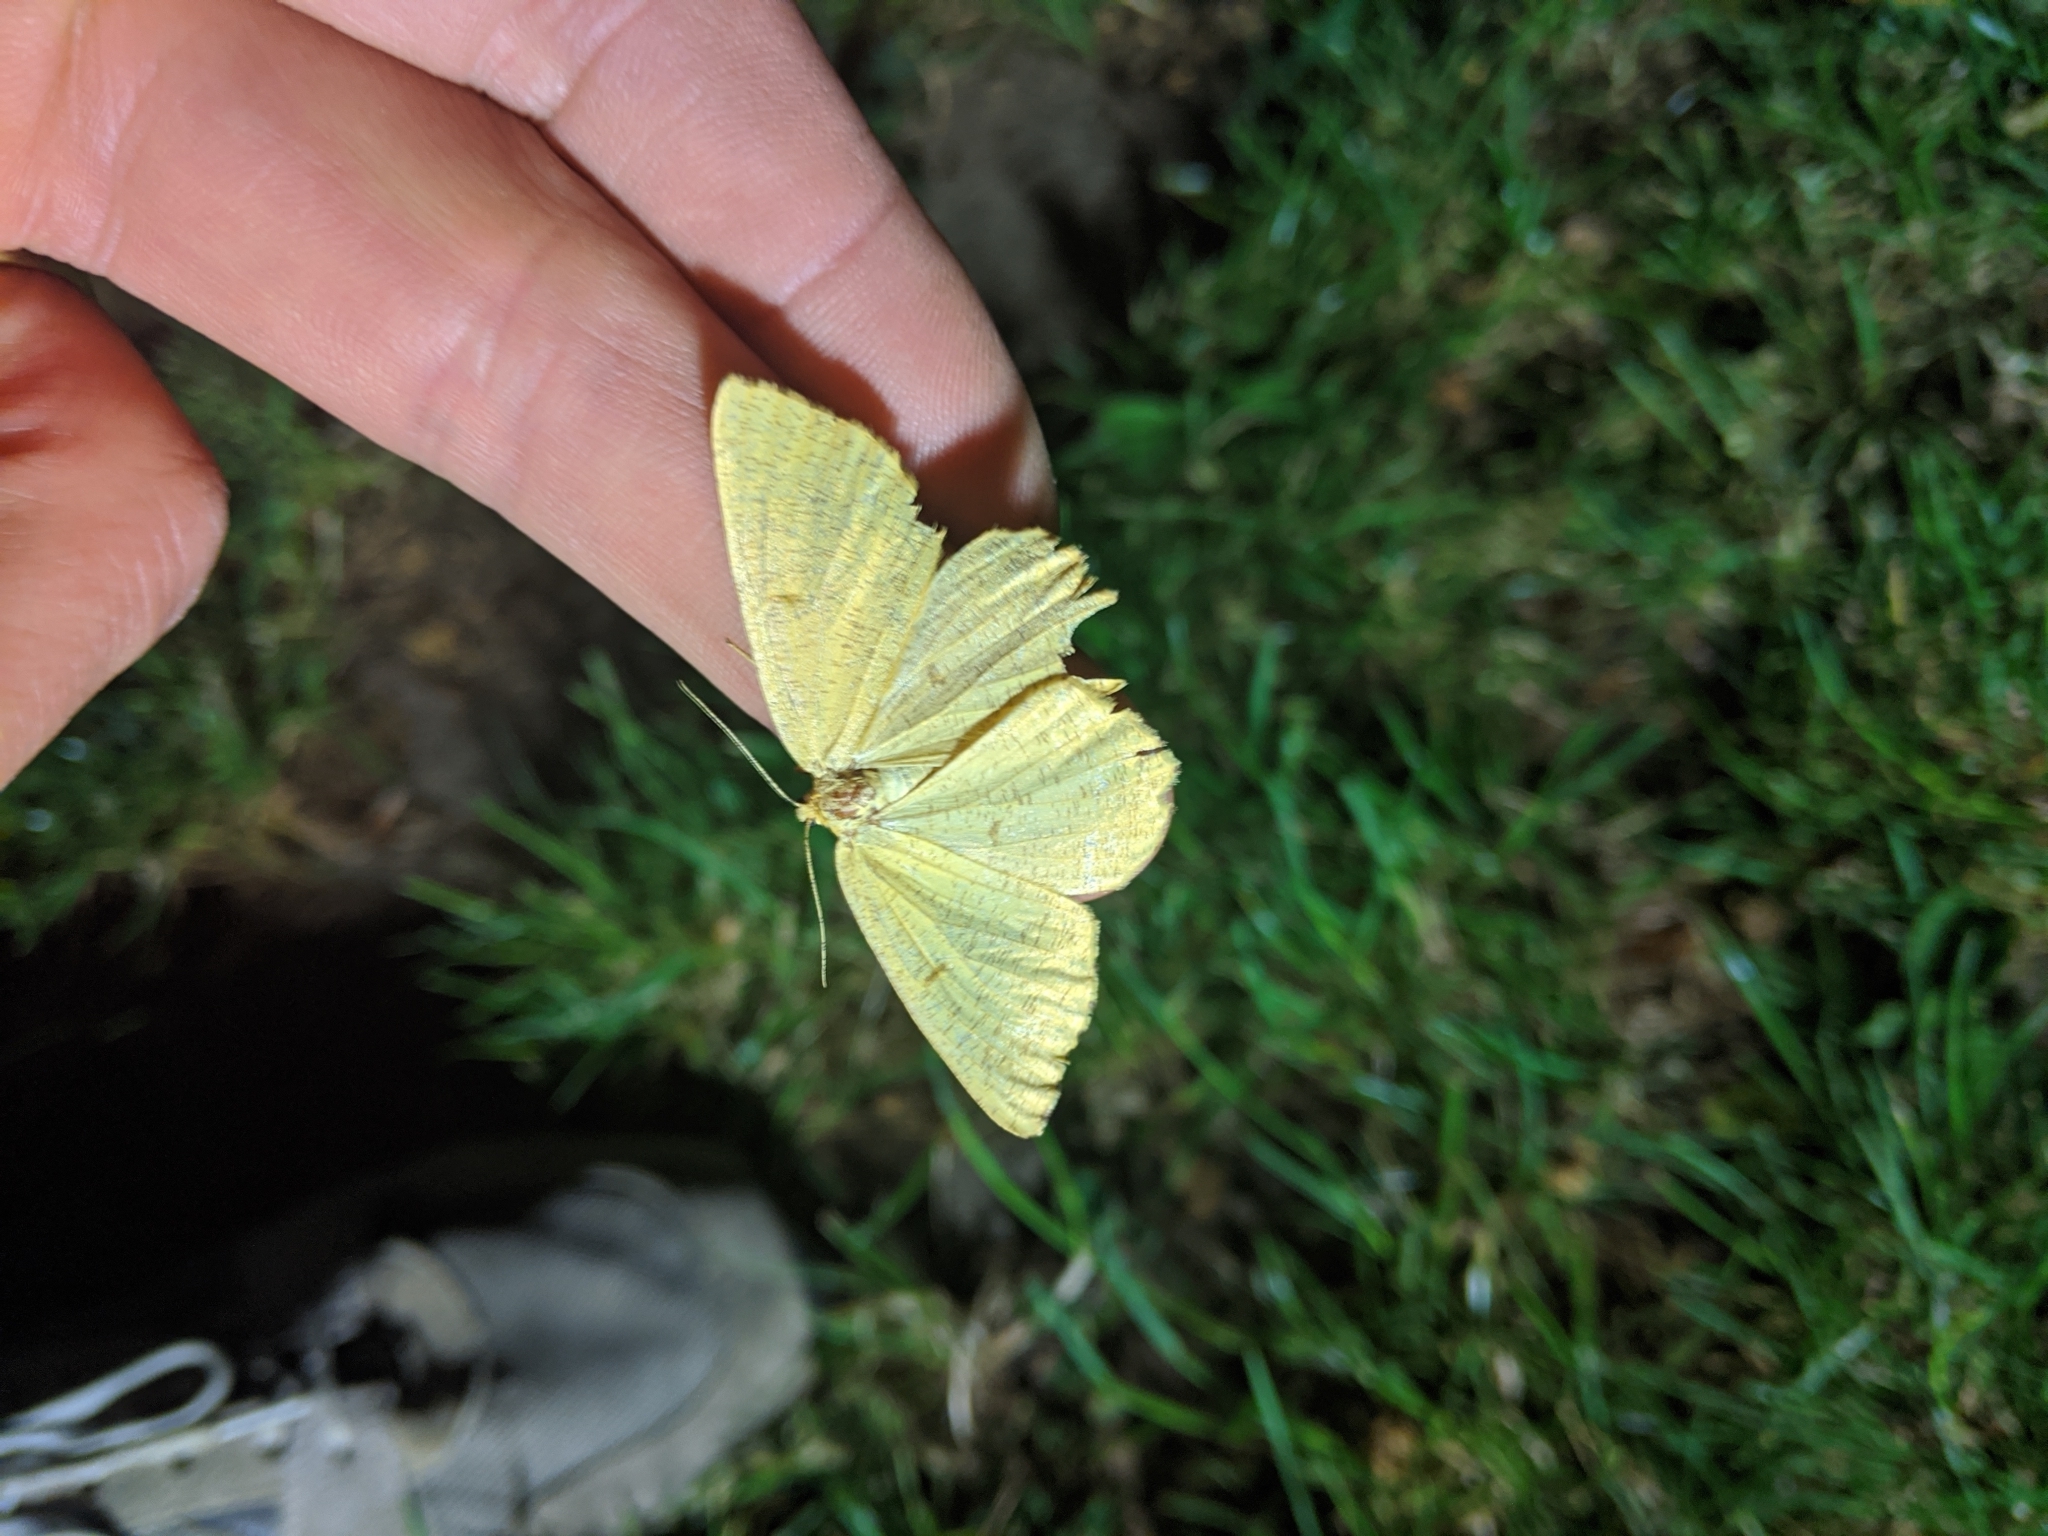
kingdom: Animalia
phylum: Arthropoda
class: Insecta
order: Lepidoptera
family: Geometridae
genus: Angerona
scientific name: Angerona prunaria
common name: Orange moth
